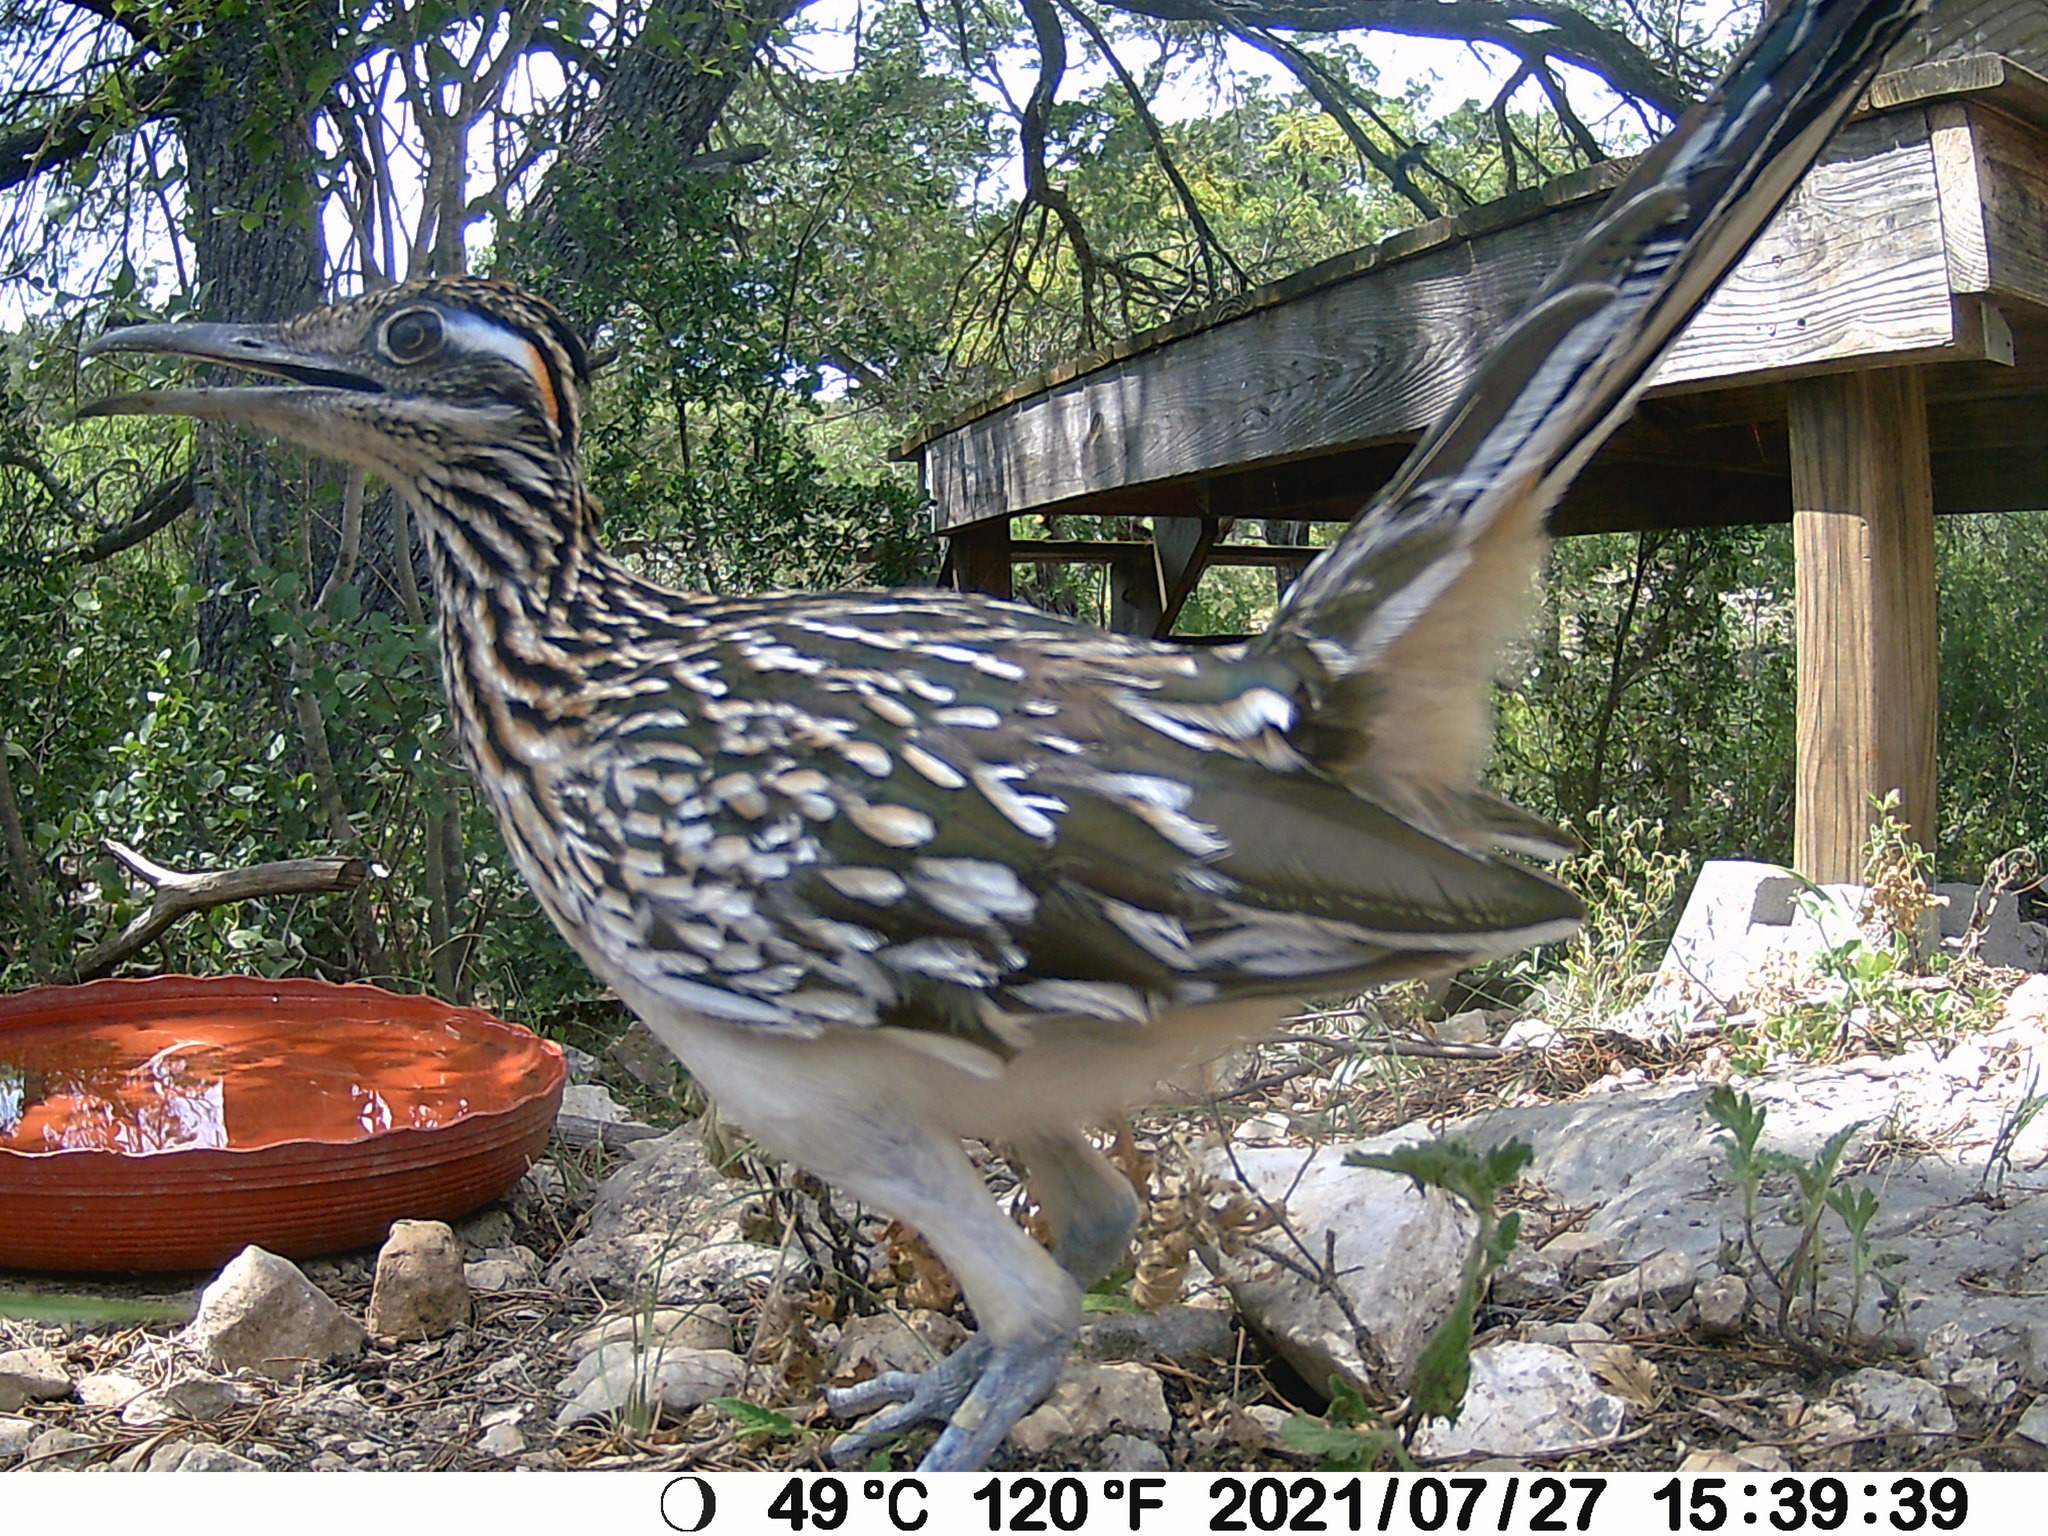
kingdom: Animalia
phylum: Chordata
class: Aves
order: Cuculiformes
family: Cuculidae
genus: Geococcyx
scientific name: Geococcyx californianus
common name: Greater roadrunner
